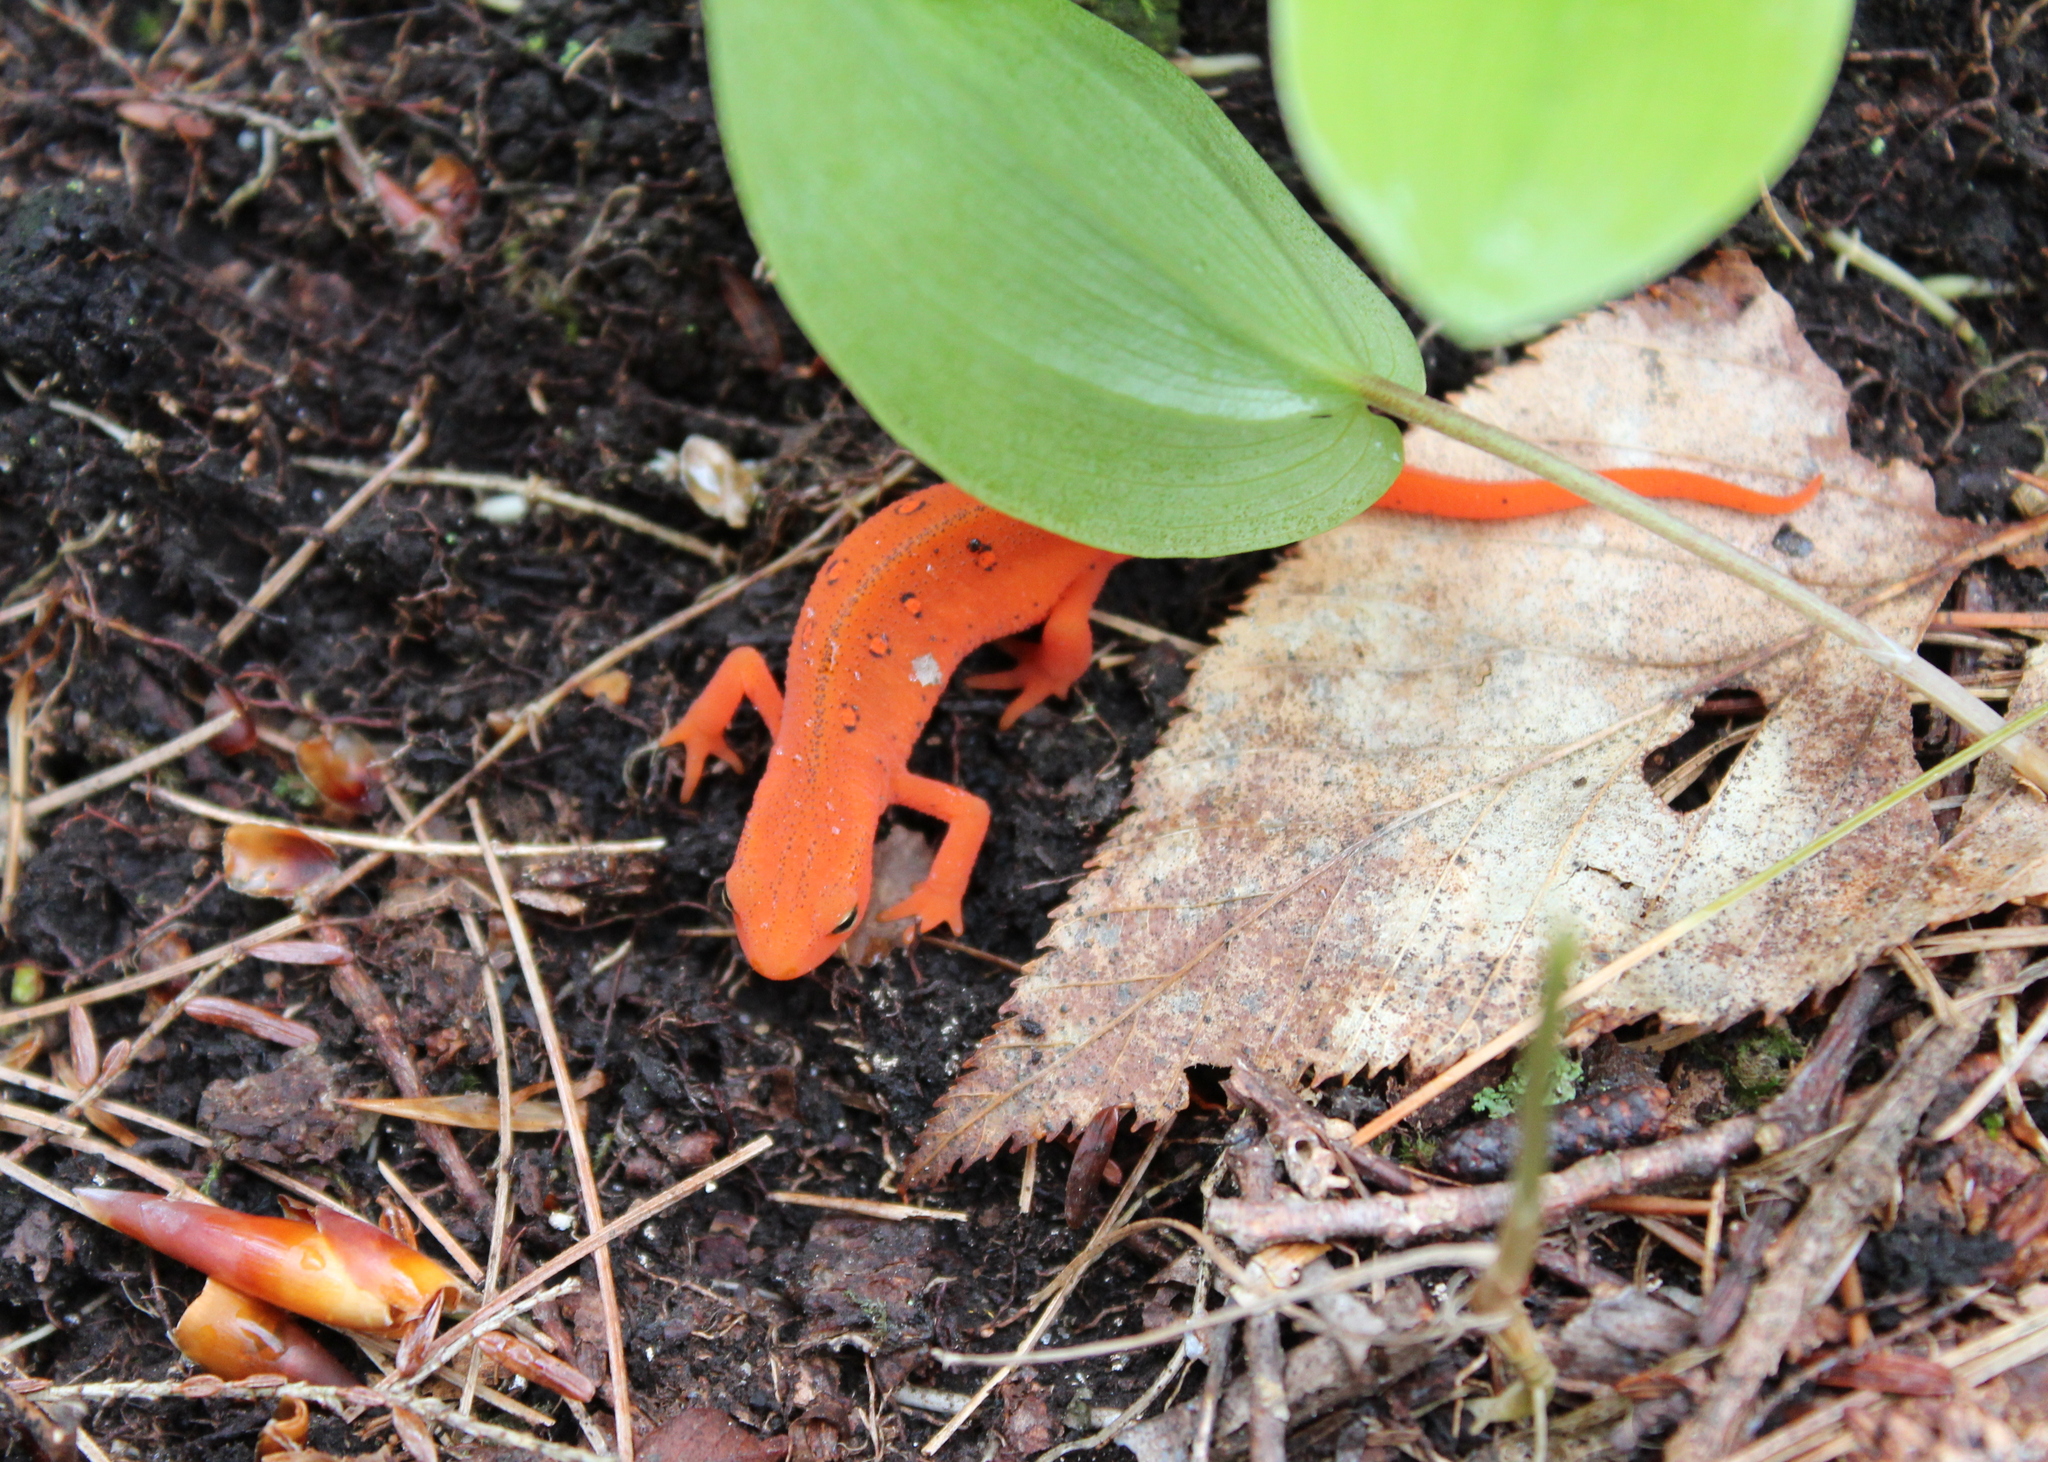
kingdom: Animalia
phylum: Chordata
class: Amphibia
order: Caudata
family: Salamandridae
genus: Notophthalmus
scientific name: Notophthalmus viridescens
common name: Eastern newt
